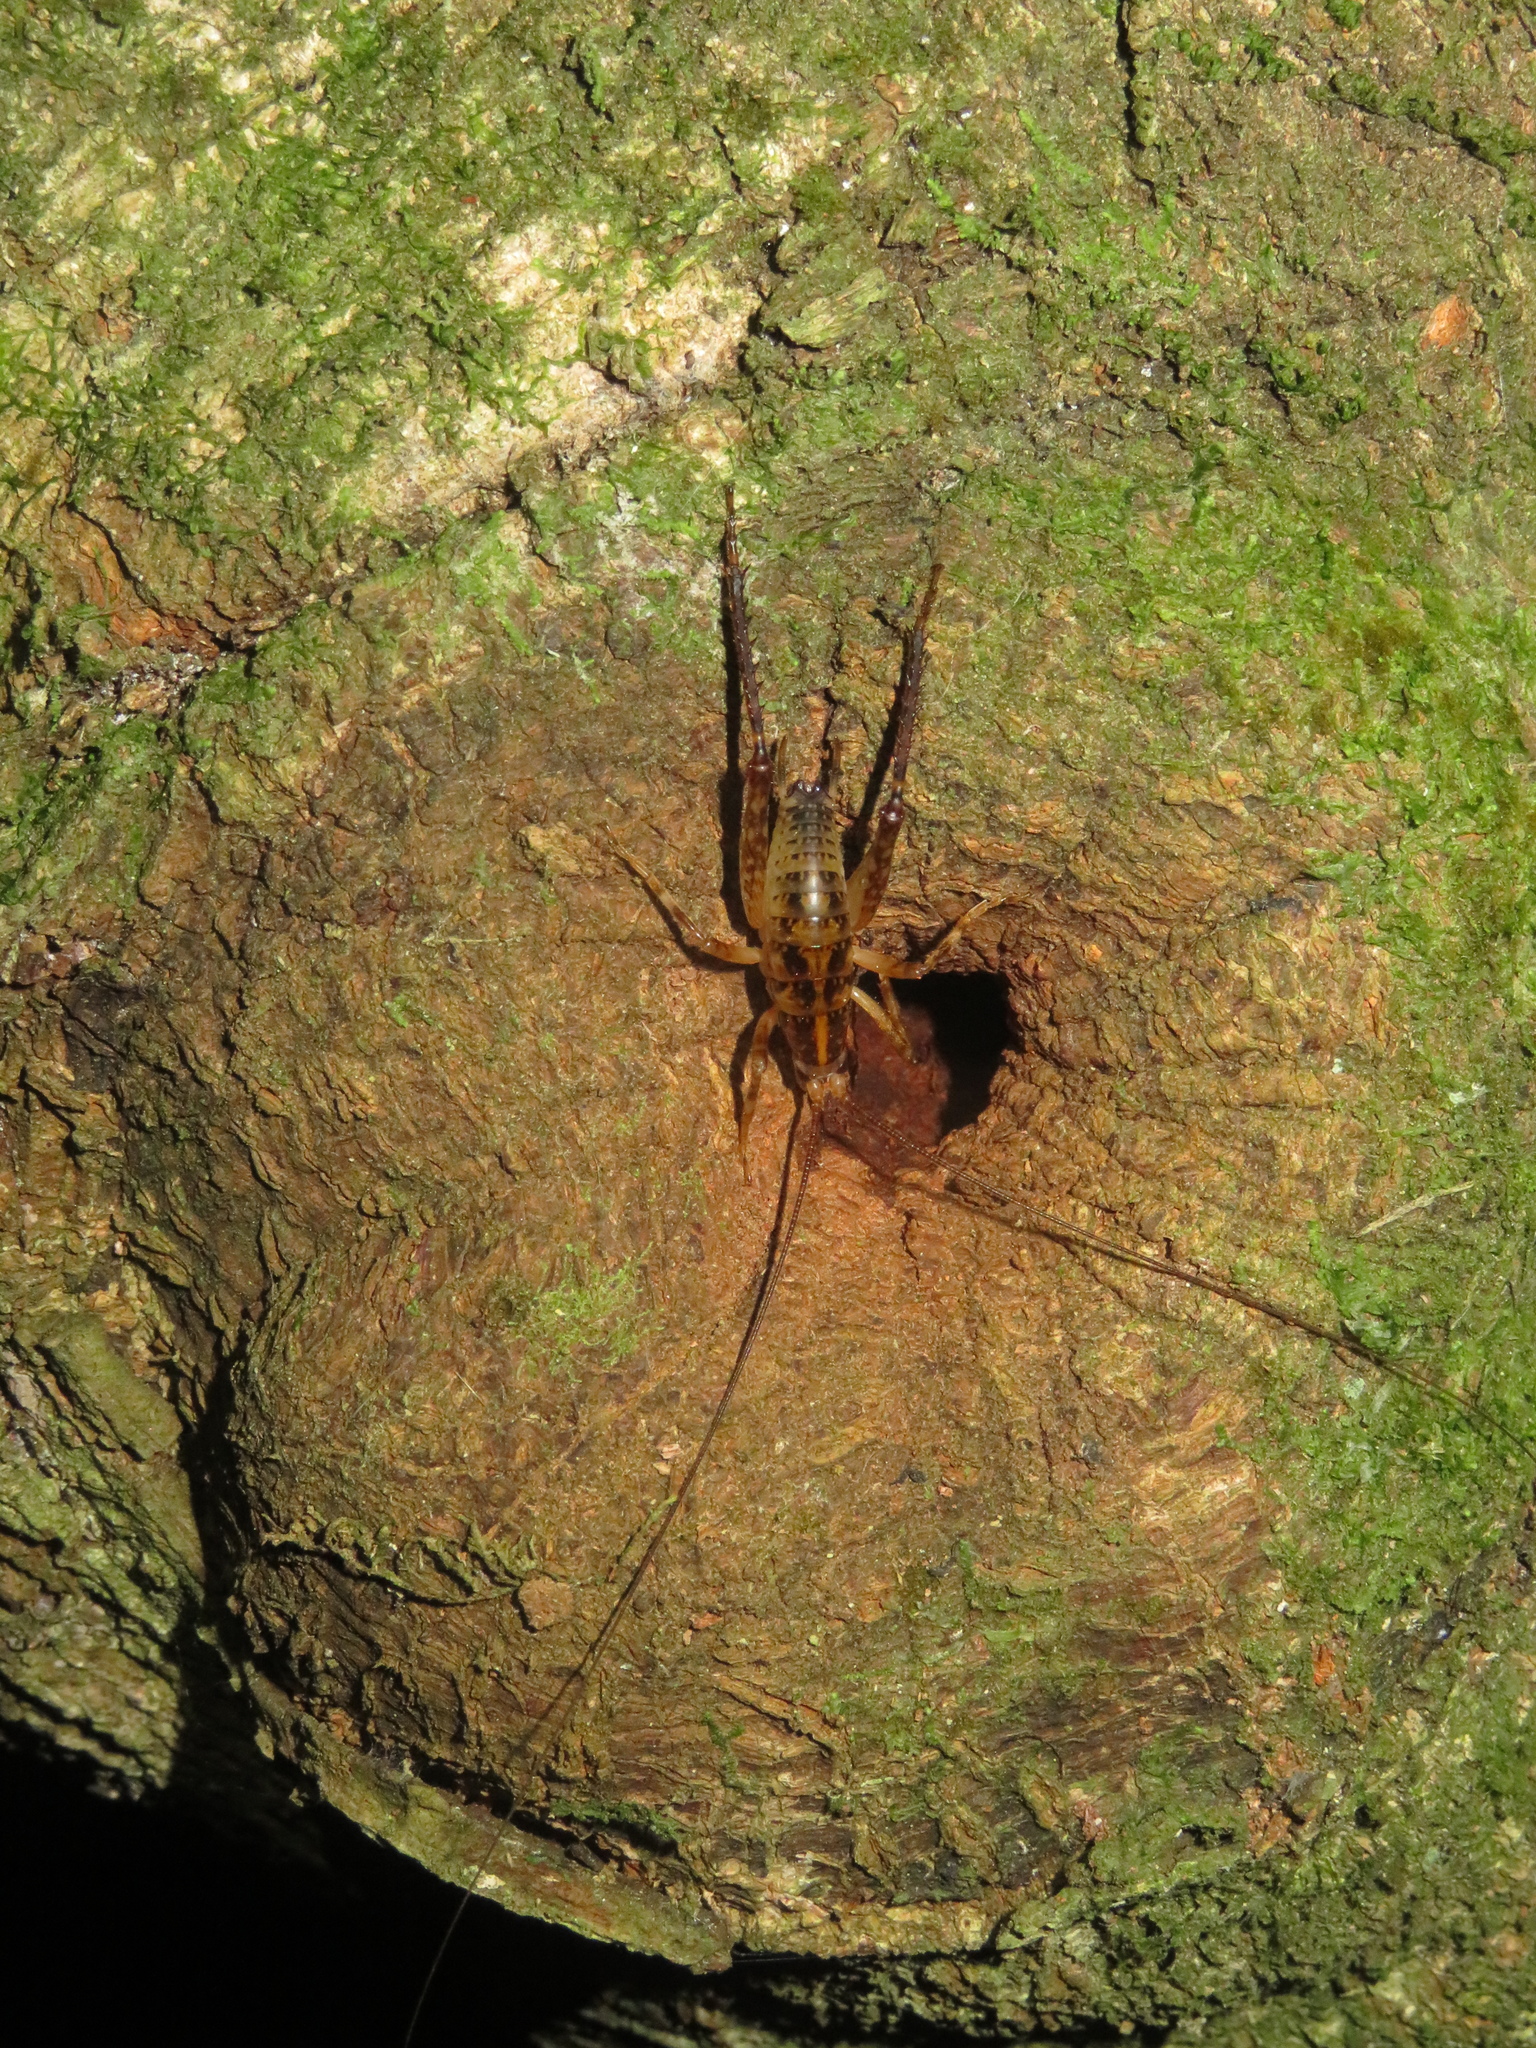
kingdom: Animalia
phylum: Arthropoda
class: Insecta
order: Orthoptera
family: Rhaphidophoridae
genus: Talitropsis
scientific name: Talitropsis sedilloti
